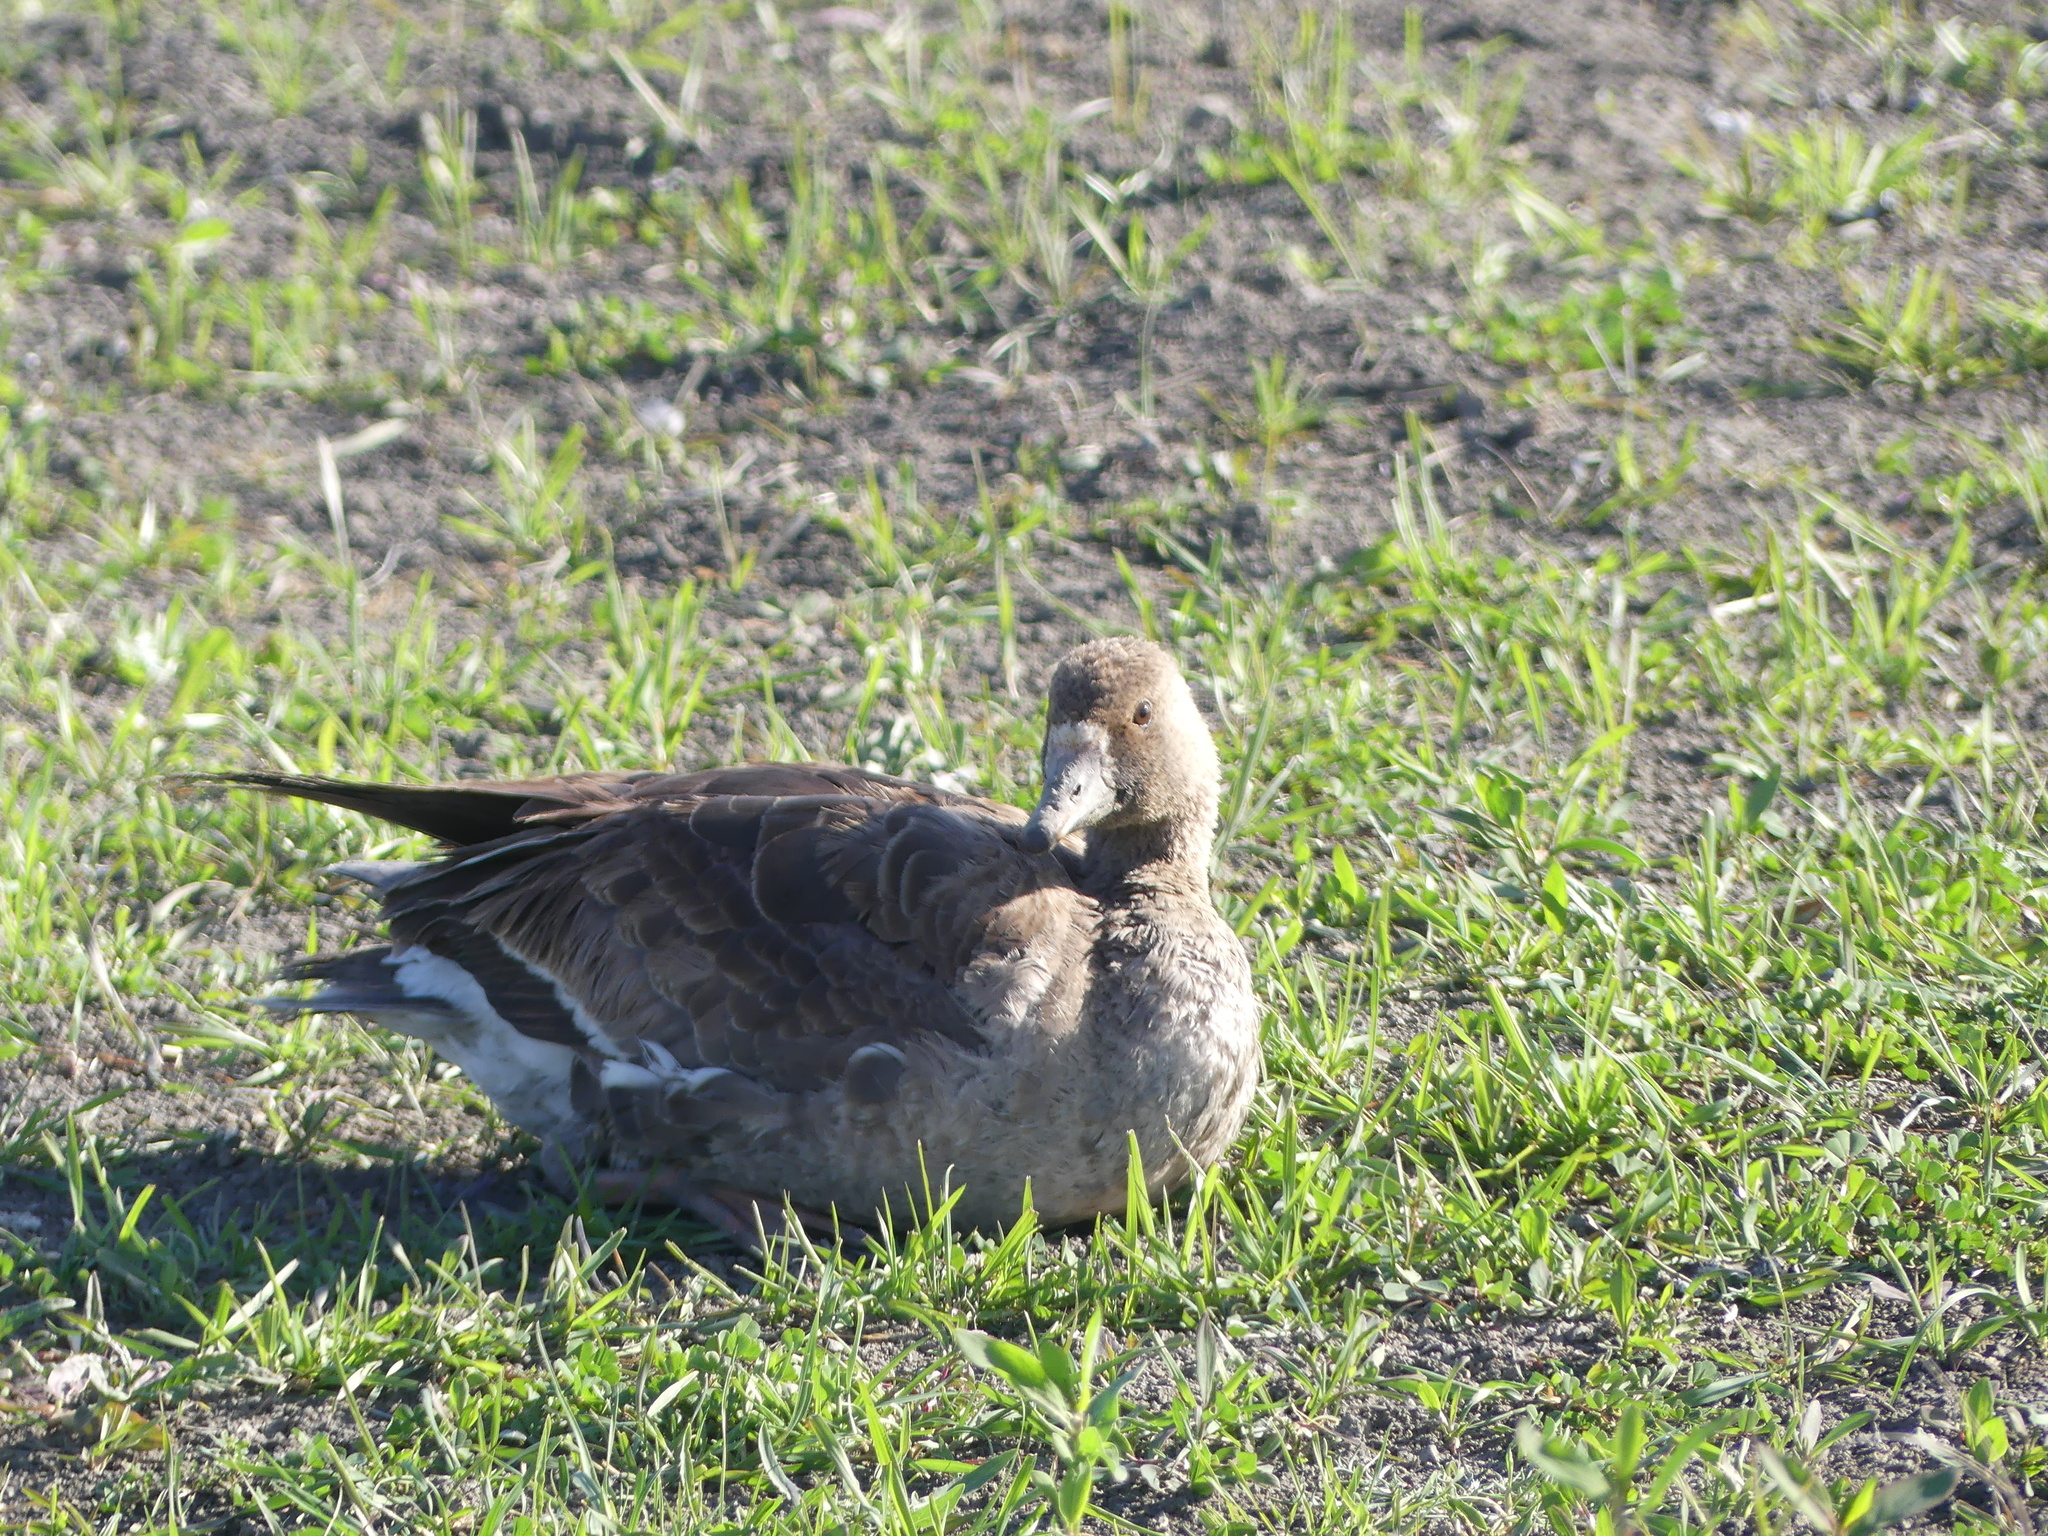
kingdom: Animalia
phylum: Chordata
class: Aves
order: Anseriformes
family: Anatidae
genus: Anser
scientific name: Anser albifrons
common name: Greater white-fronted goose
